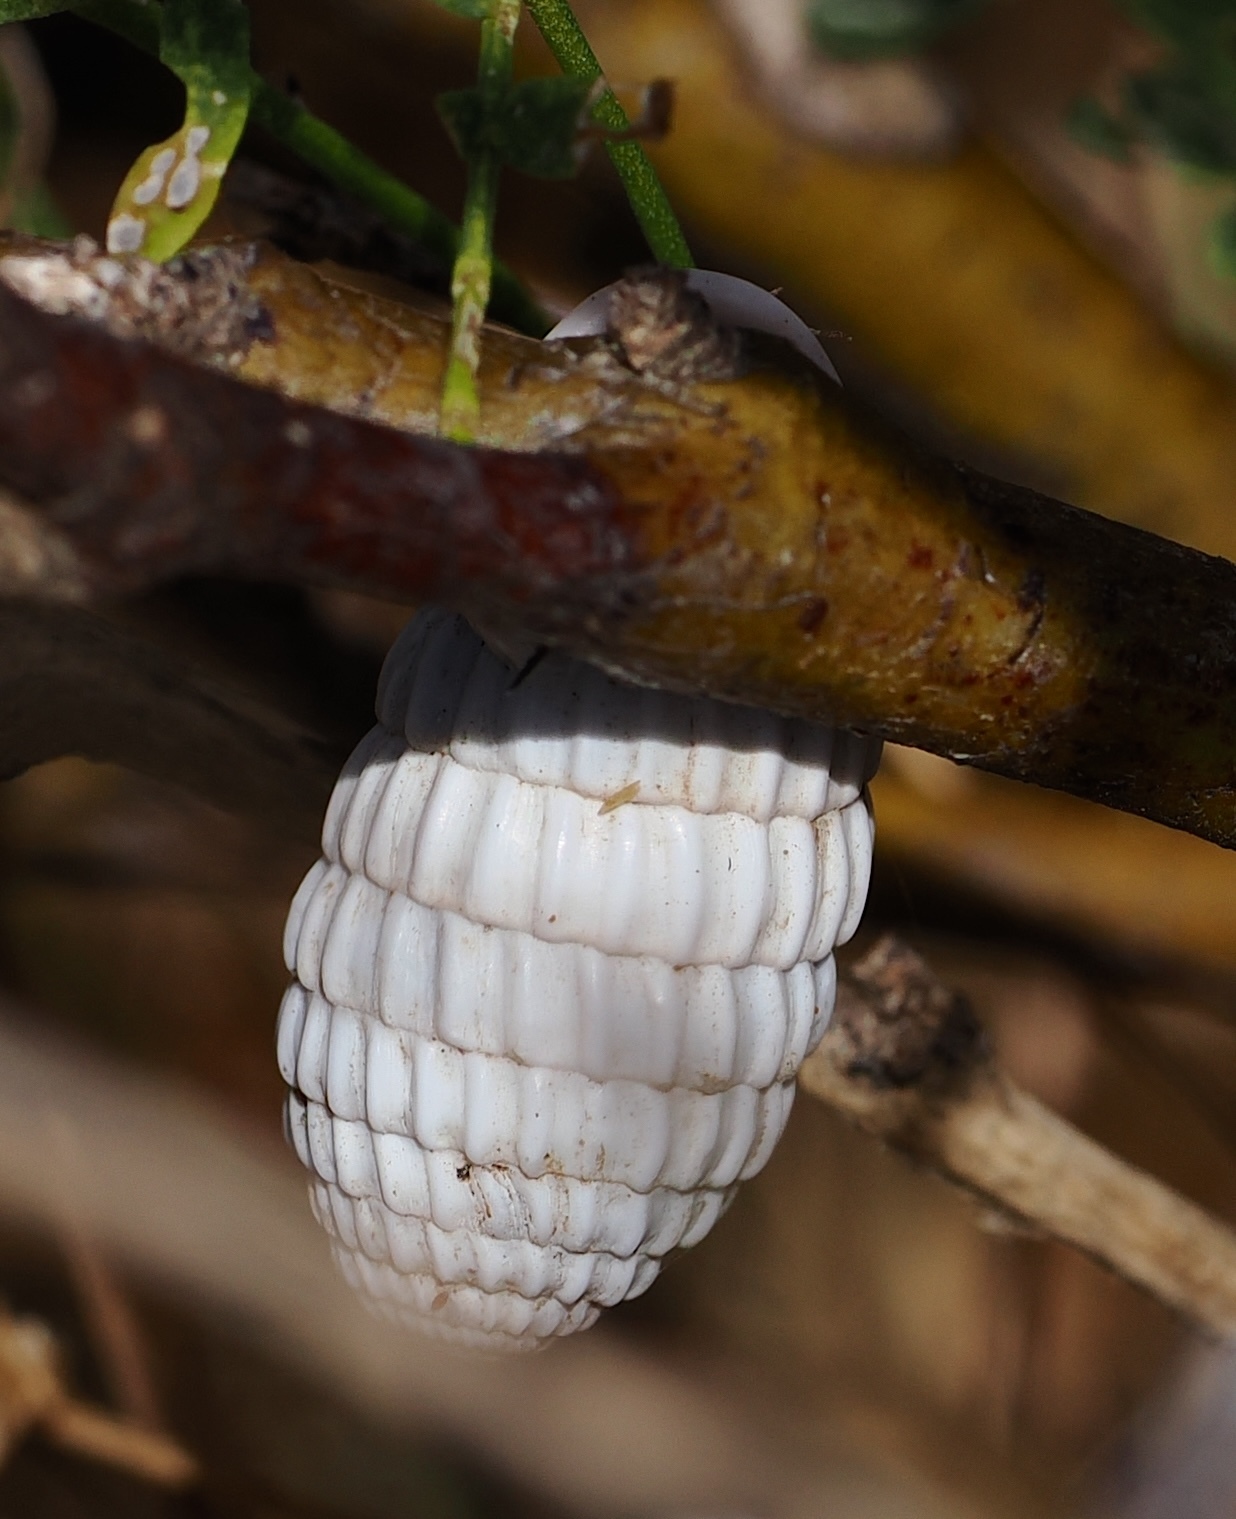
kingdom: Animalia
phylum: Mollusca
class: Gastropoda
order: Stylommatophora
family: Cerionidae
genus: Cerion
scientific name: Cerion uva
